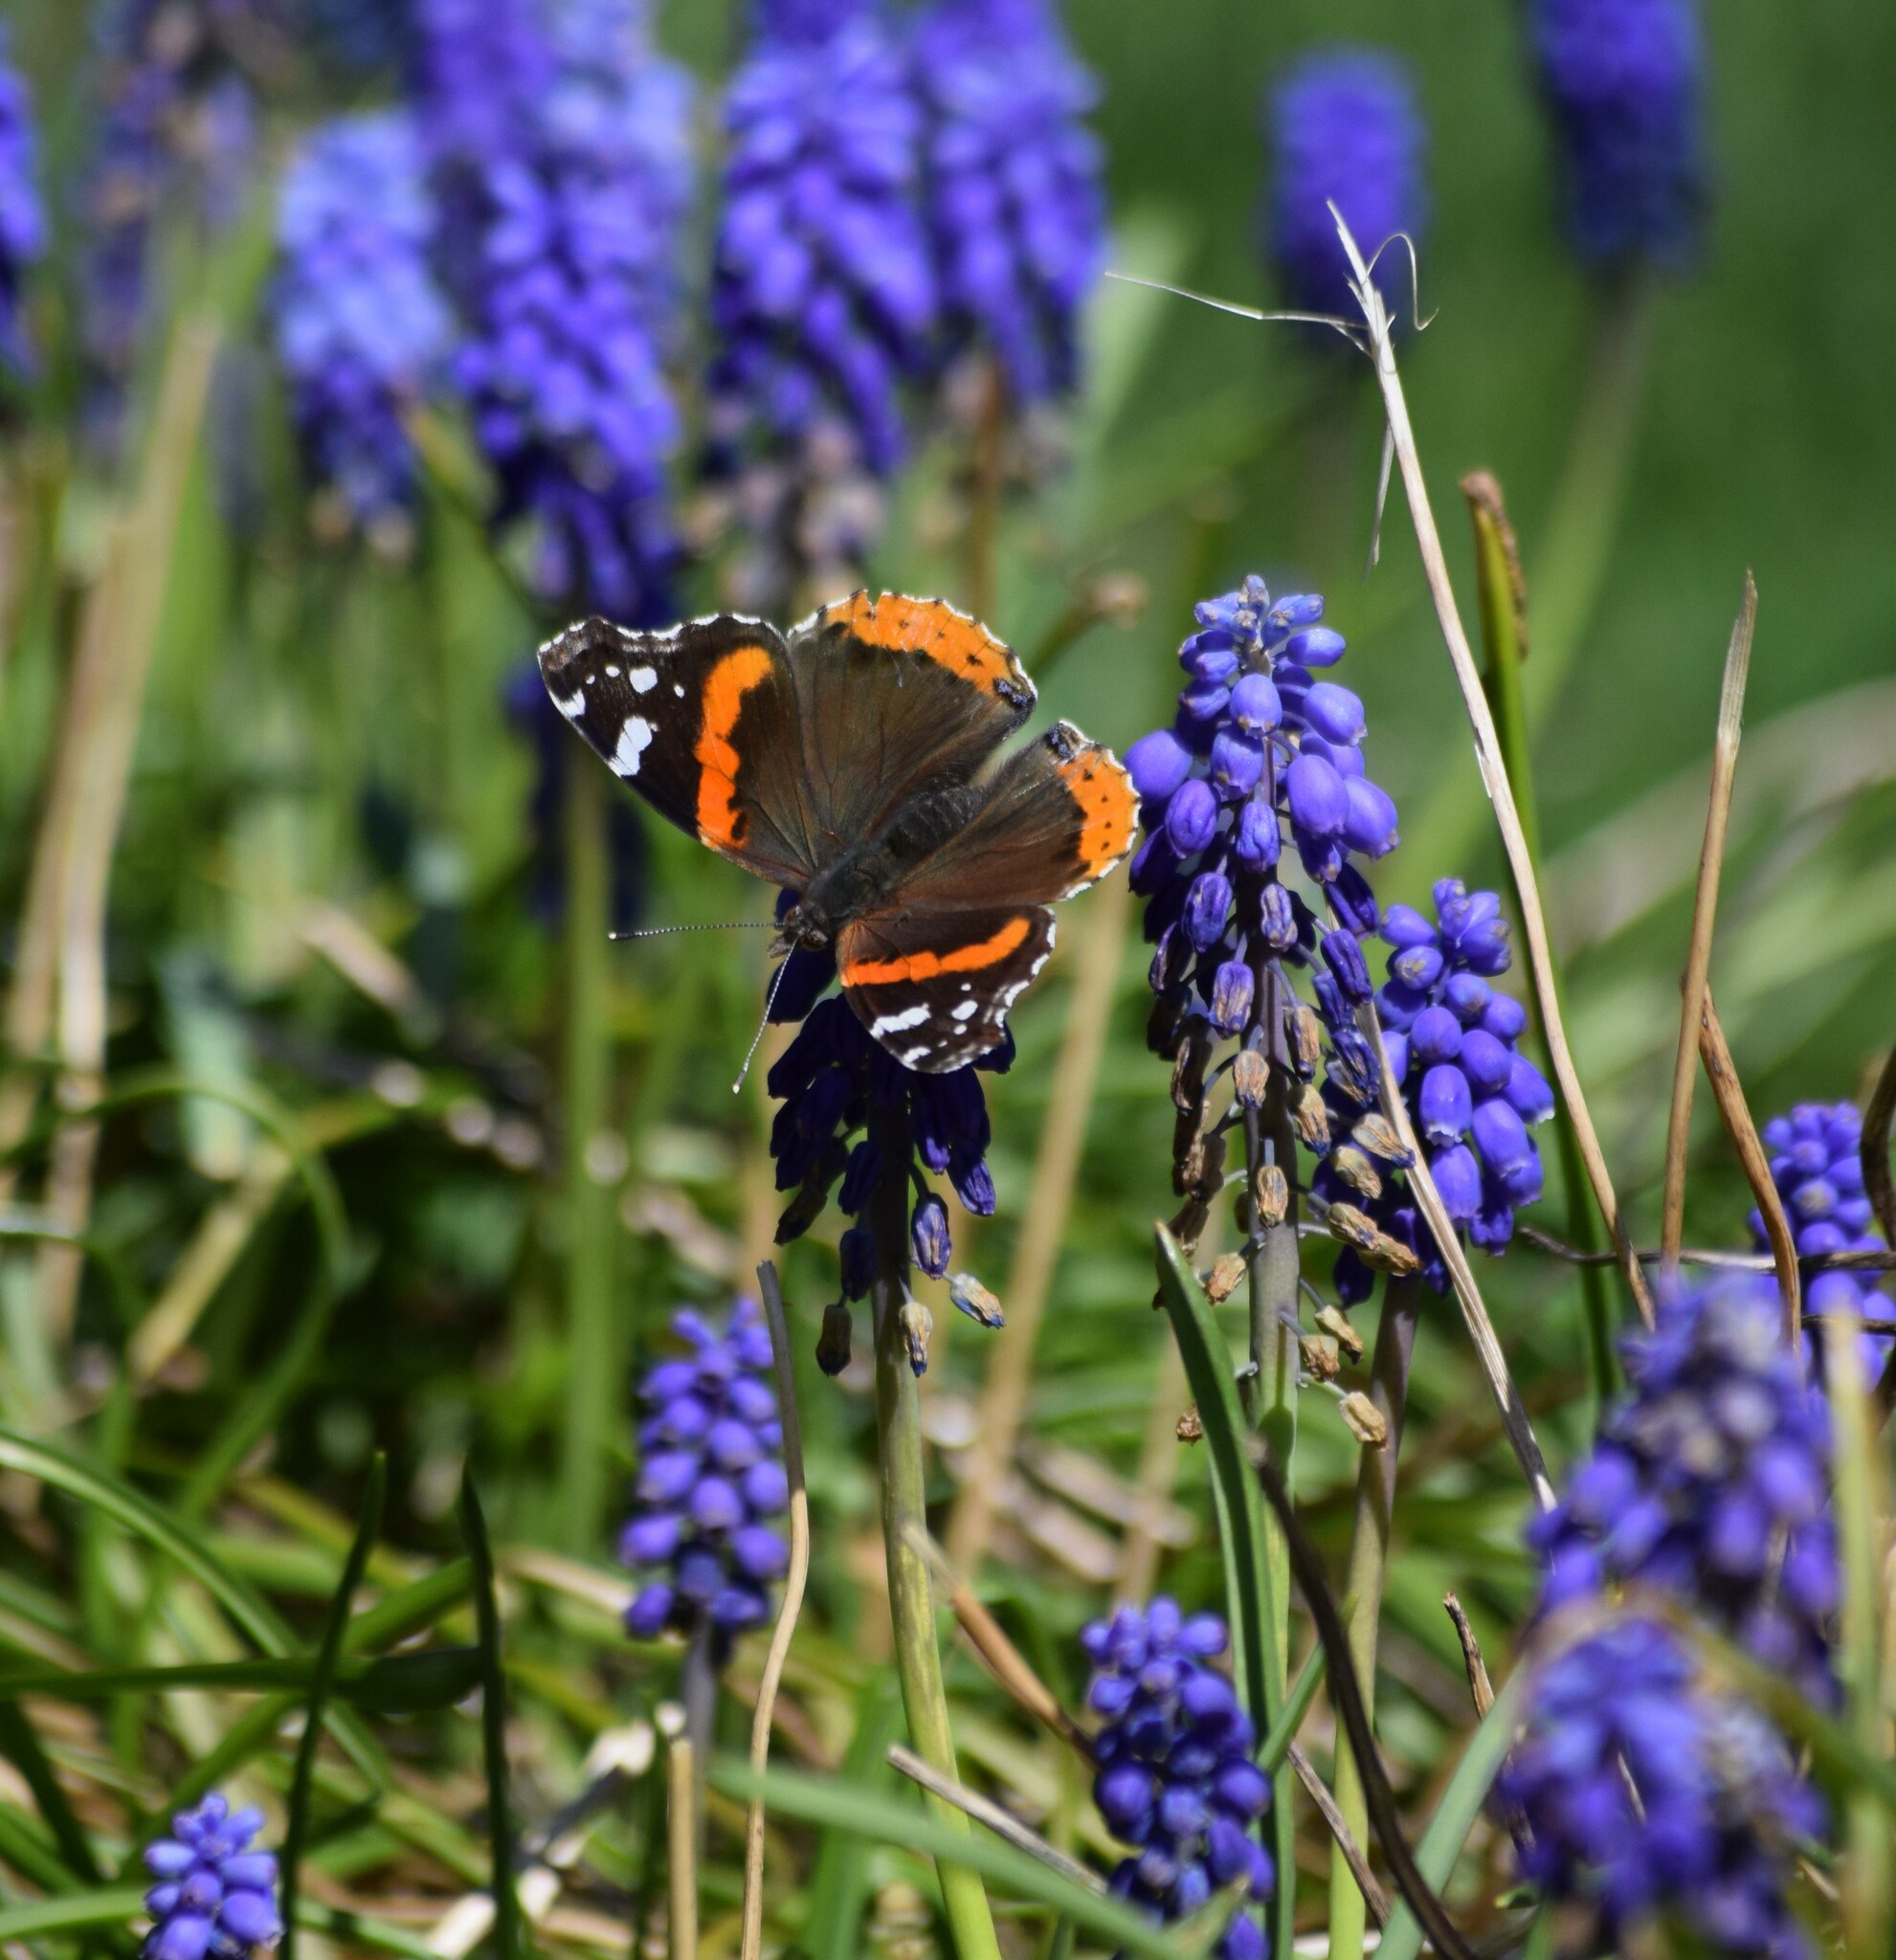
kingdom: Animalia
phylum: Arthropoda
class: Insecta
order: Lepidoptera
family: Nymphalidae
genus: Vanessa
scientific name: Vanessa atalanta
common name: Red admiral
